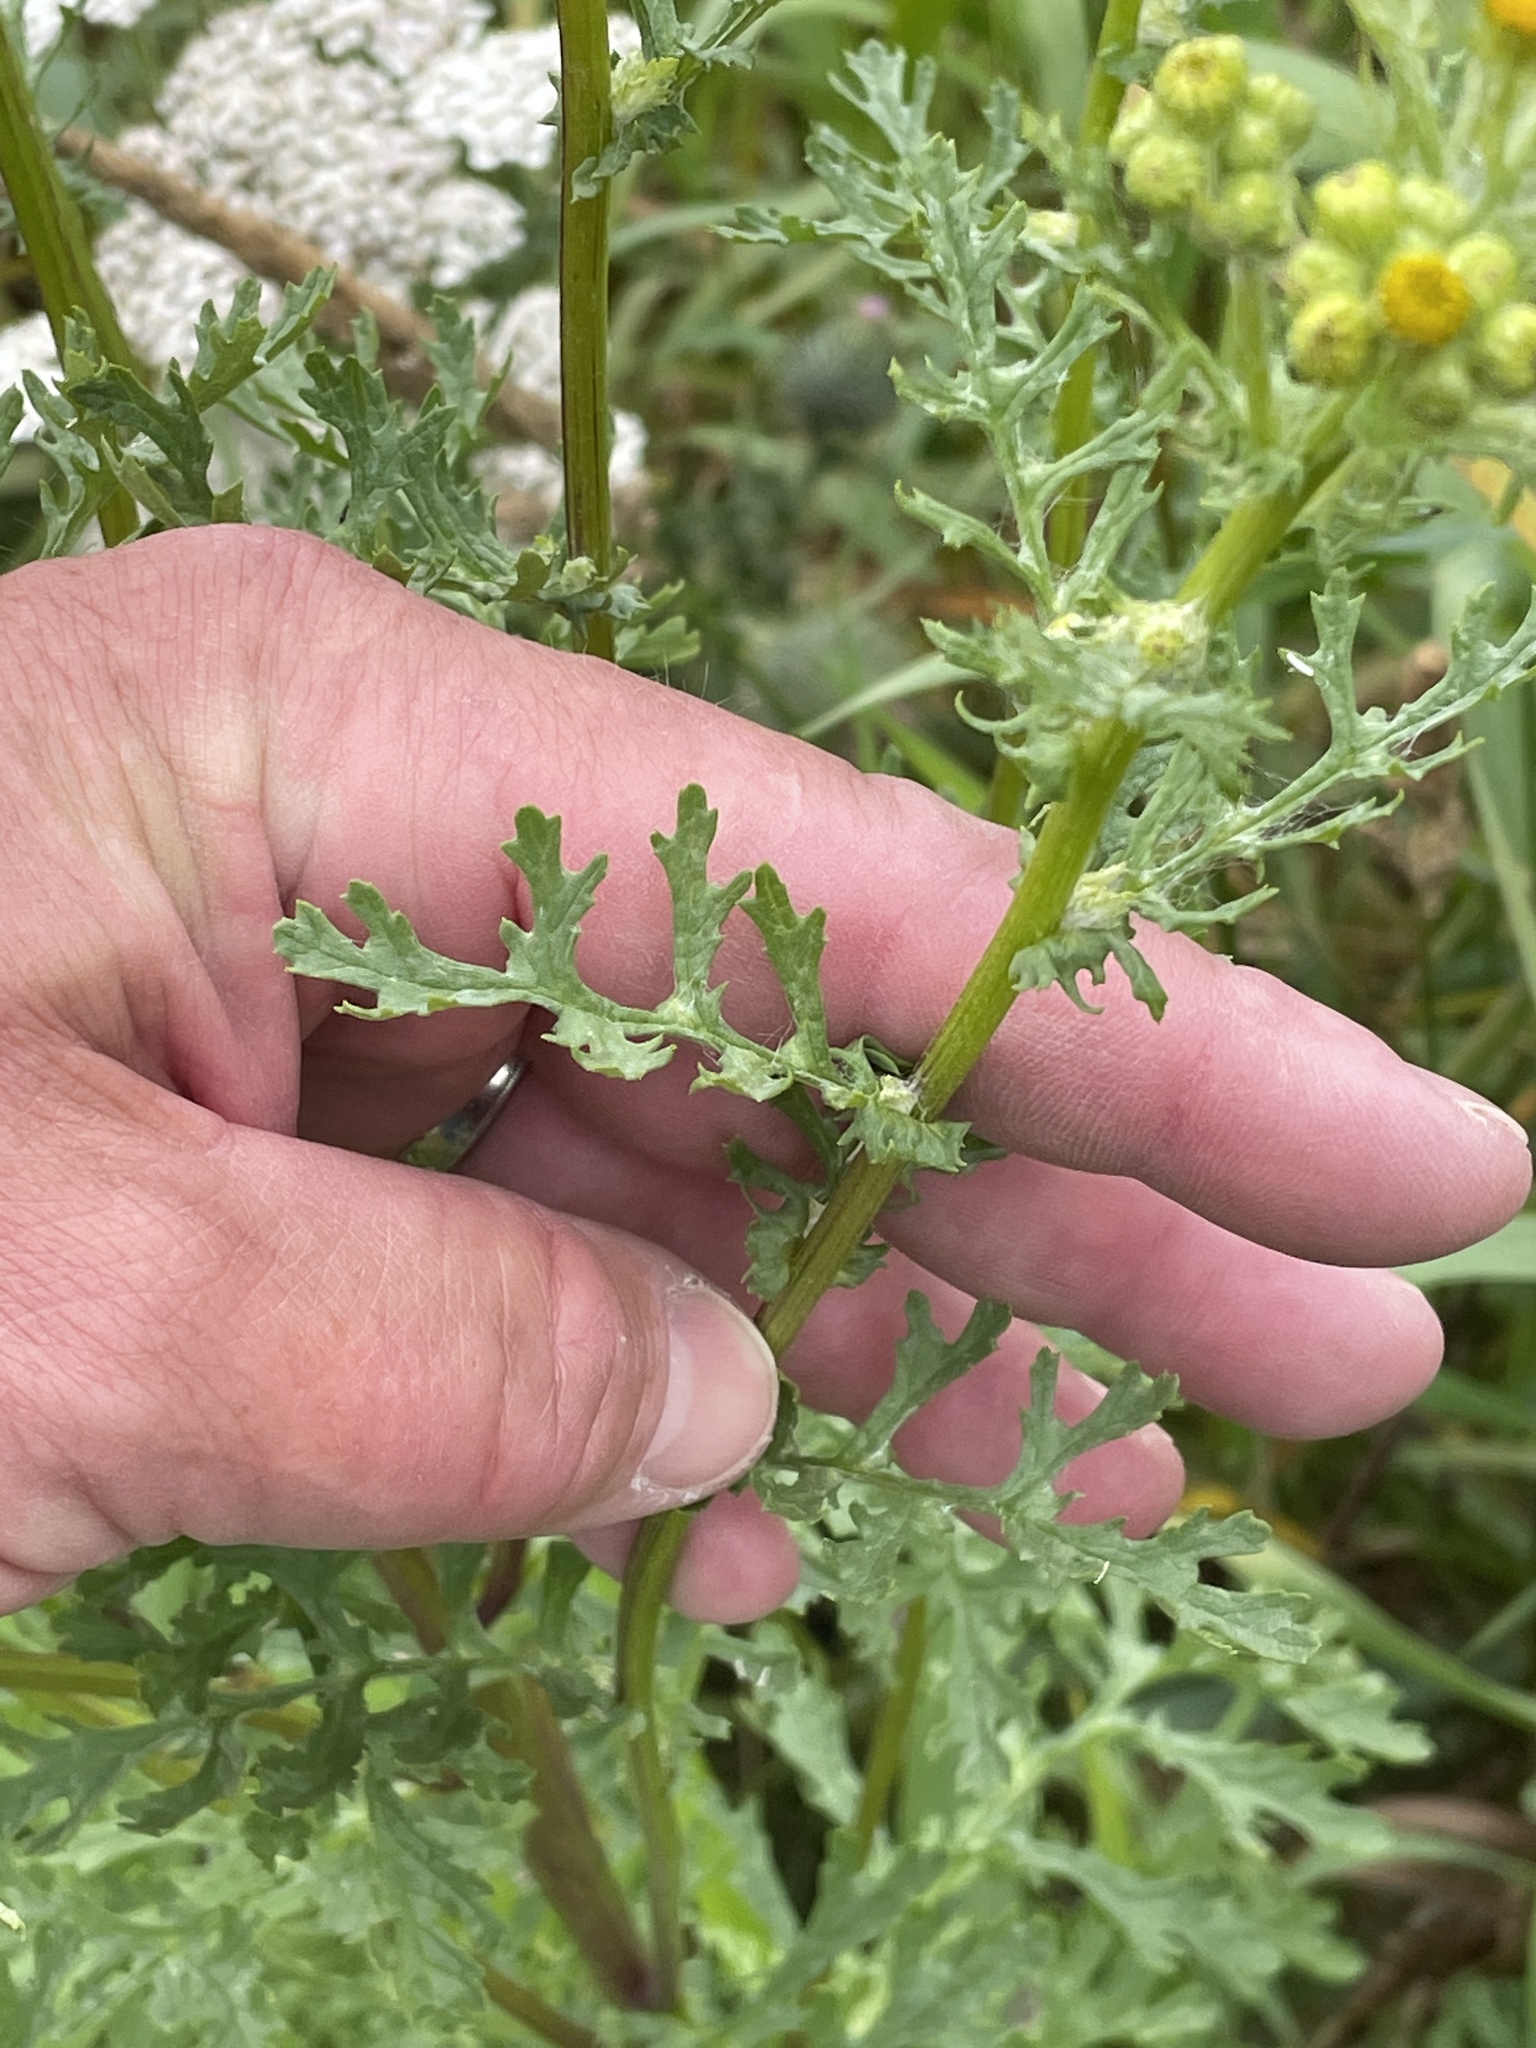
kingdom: Plantae
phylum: Tracheophyta
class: Magnoliopsida
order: Asterales
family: Asteraceae
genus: Jacobaea
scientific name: Jacobaea vulgaris
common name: Stinking willie
